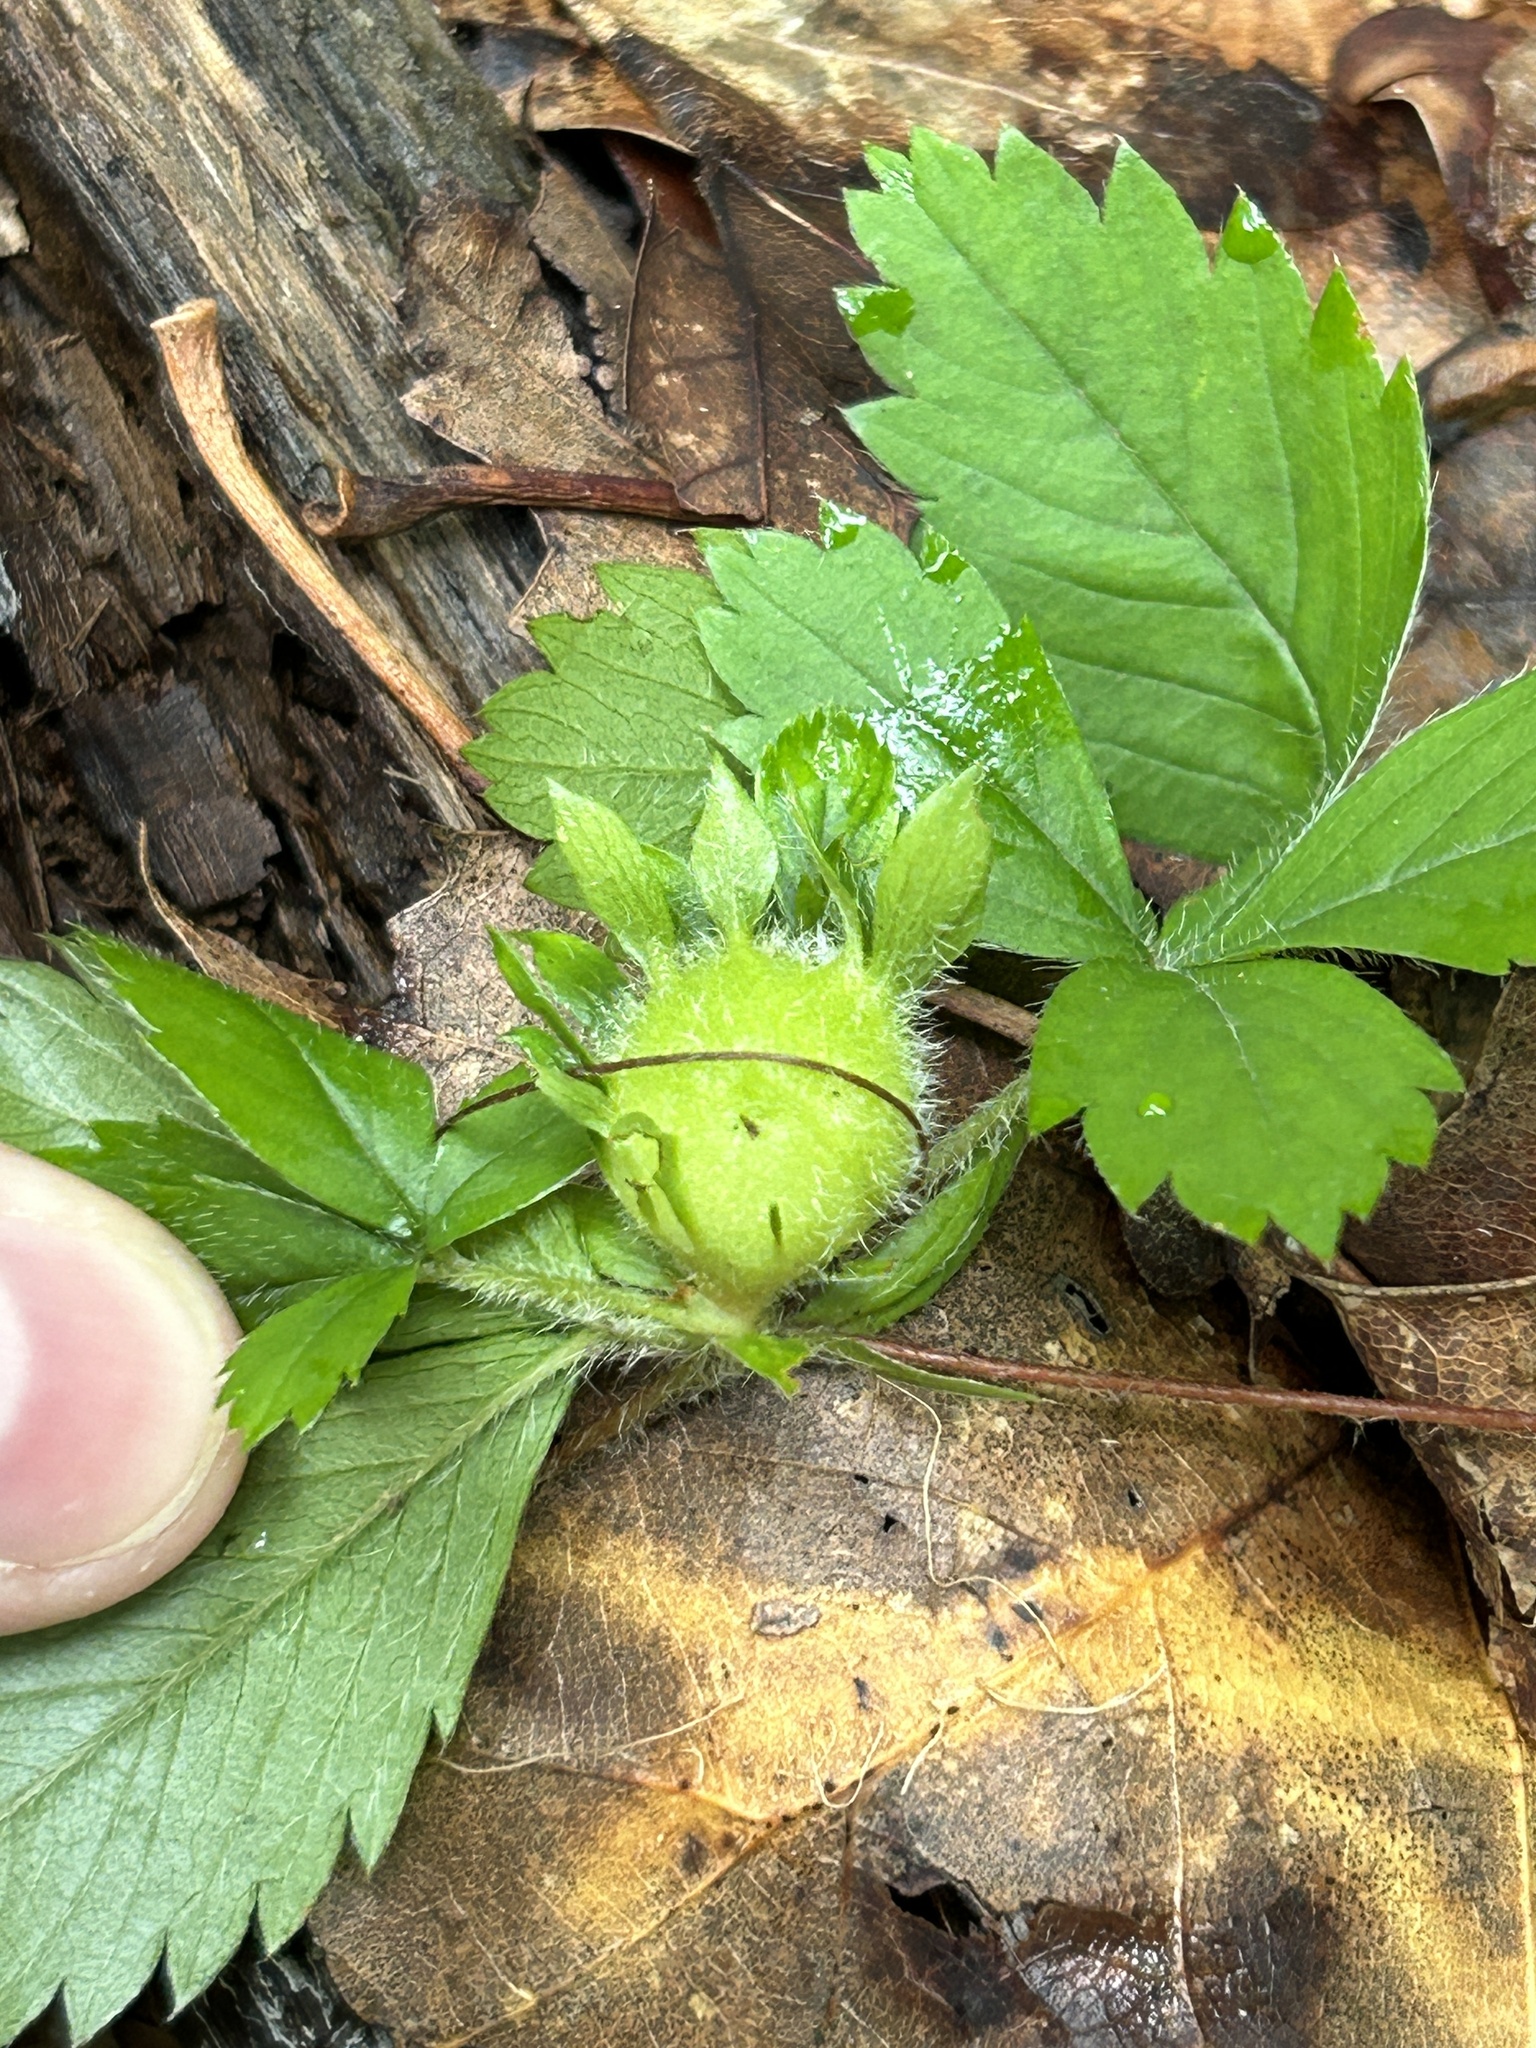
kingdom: Animalia
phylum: Arthropoda
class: Insecta
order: Hymenoptera
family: Cynipidae
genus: Diastrophus
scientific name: Diastrophus potentillae
